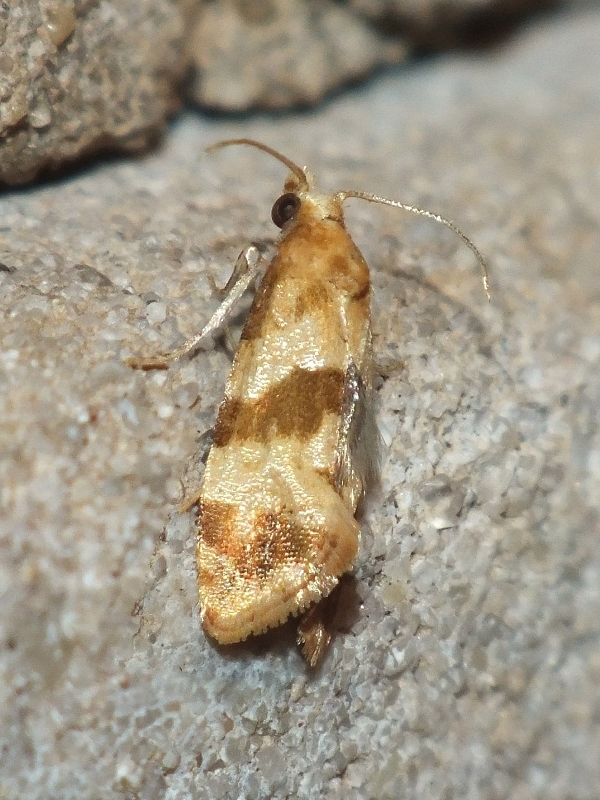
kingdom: Animalia
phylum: Arthropoda
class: Insecta
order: Lepidoptera
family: Tortricidae
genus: Phalonidia
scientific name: Phalonidia contractana
